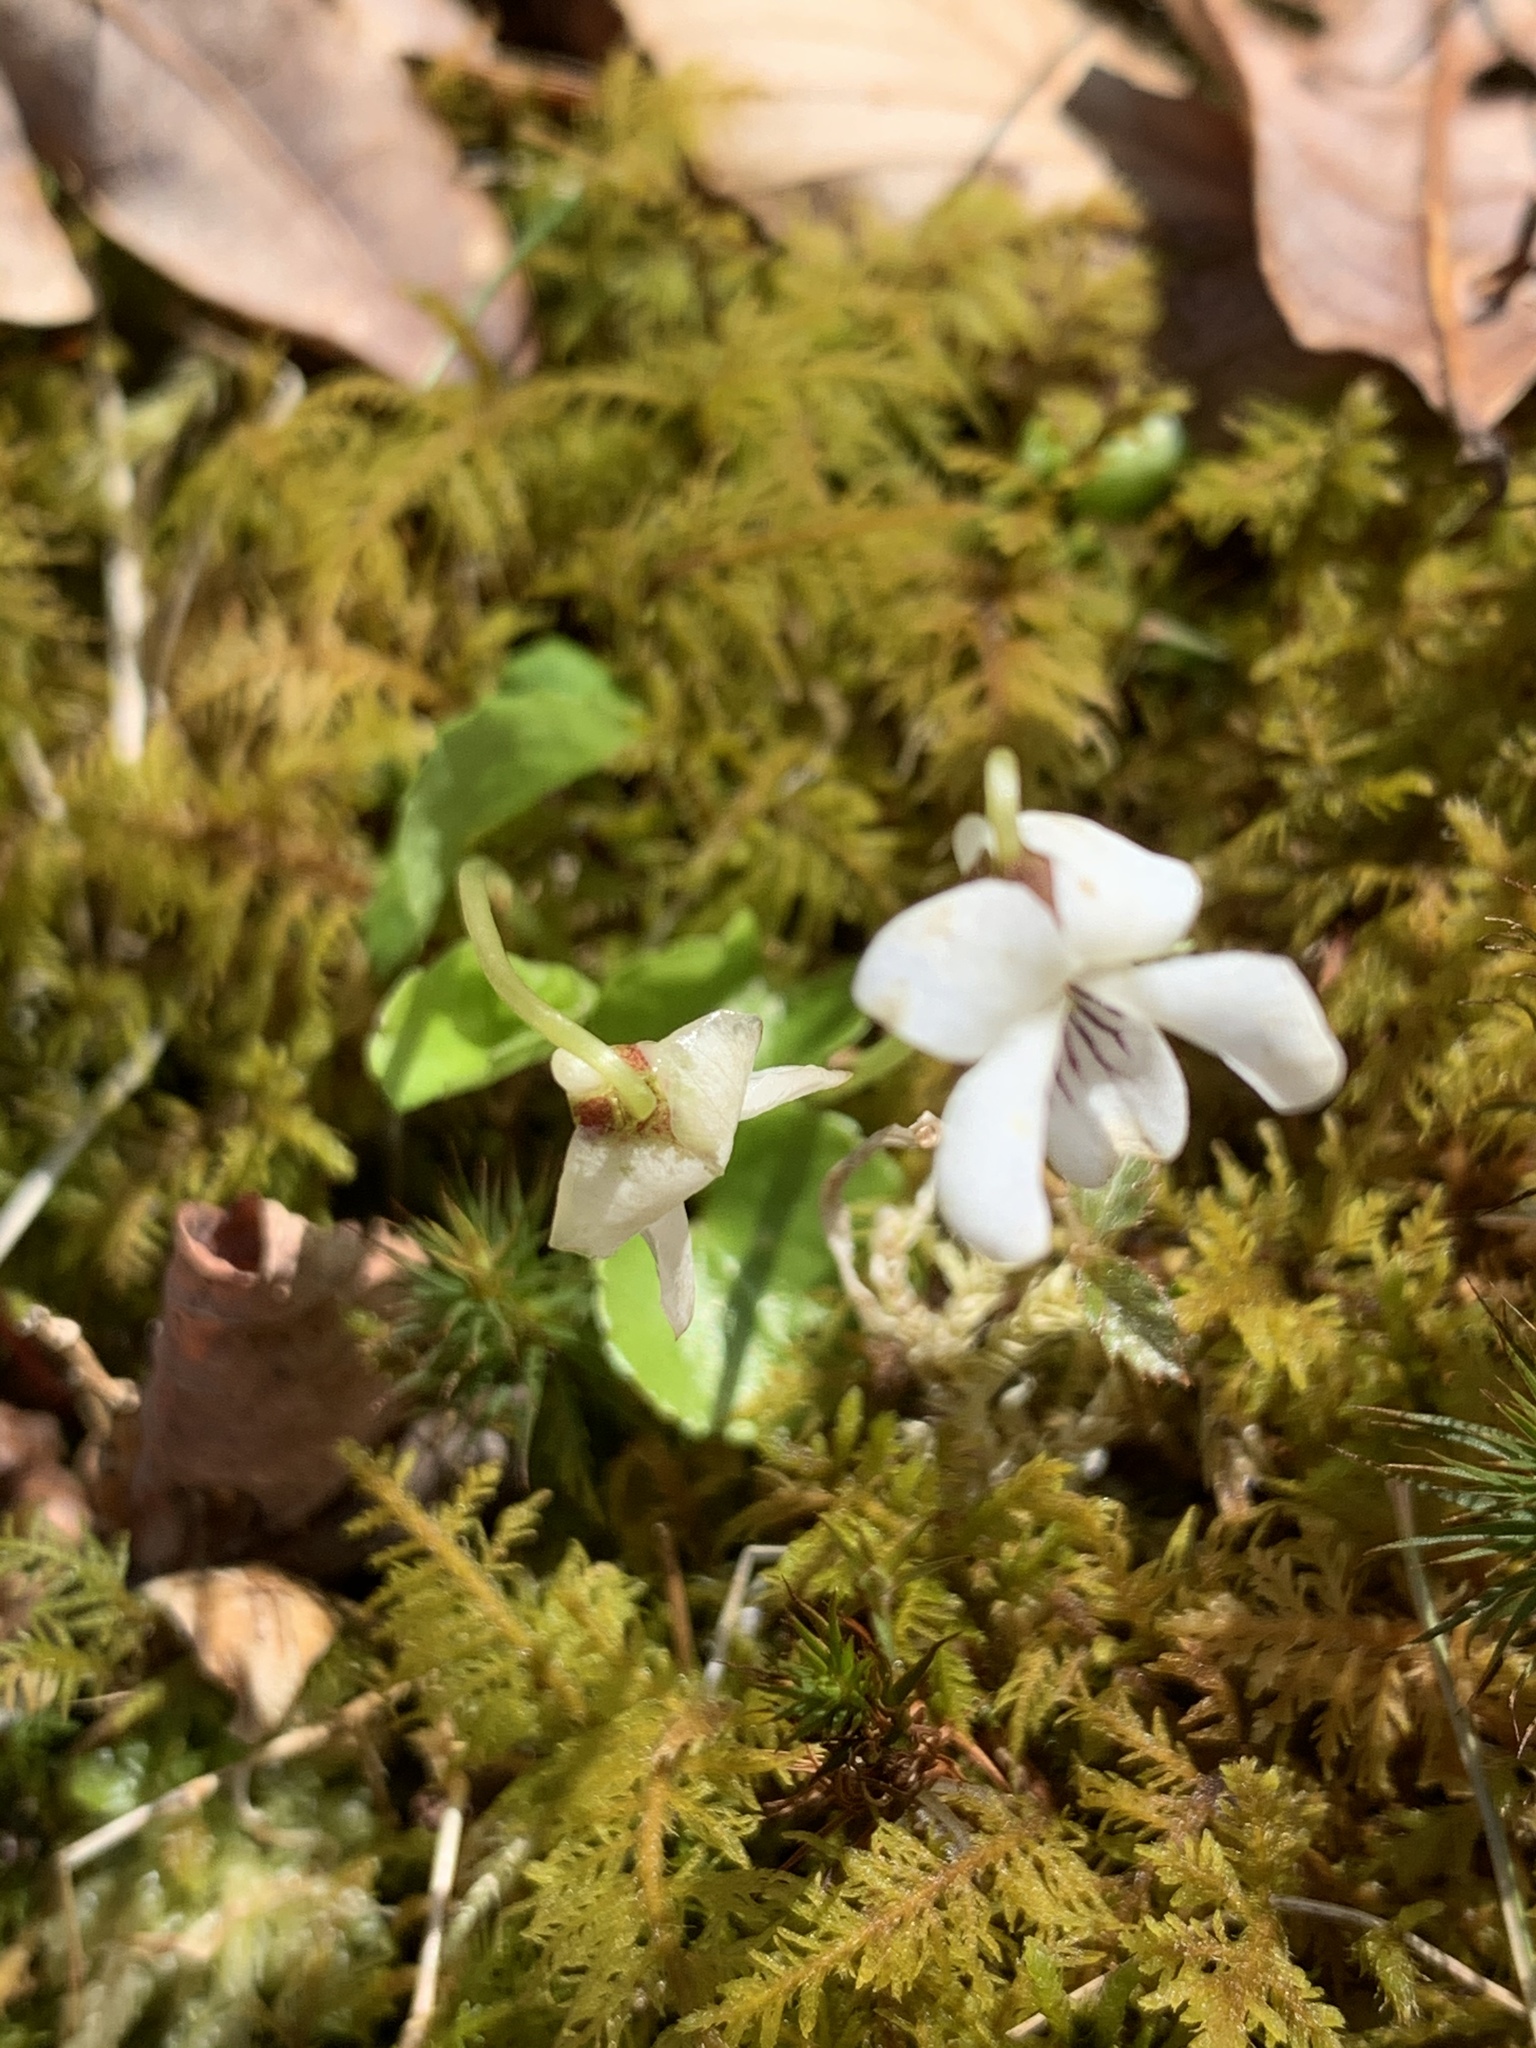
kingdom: Plantae
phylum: Tracheophyta
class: Magnoliopsida
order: Malpighiales
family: Violaceae
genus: Viola
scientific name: Viola blanda
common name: Sweet white violet
